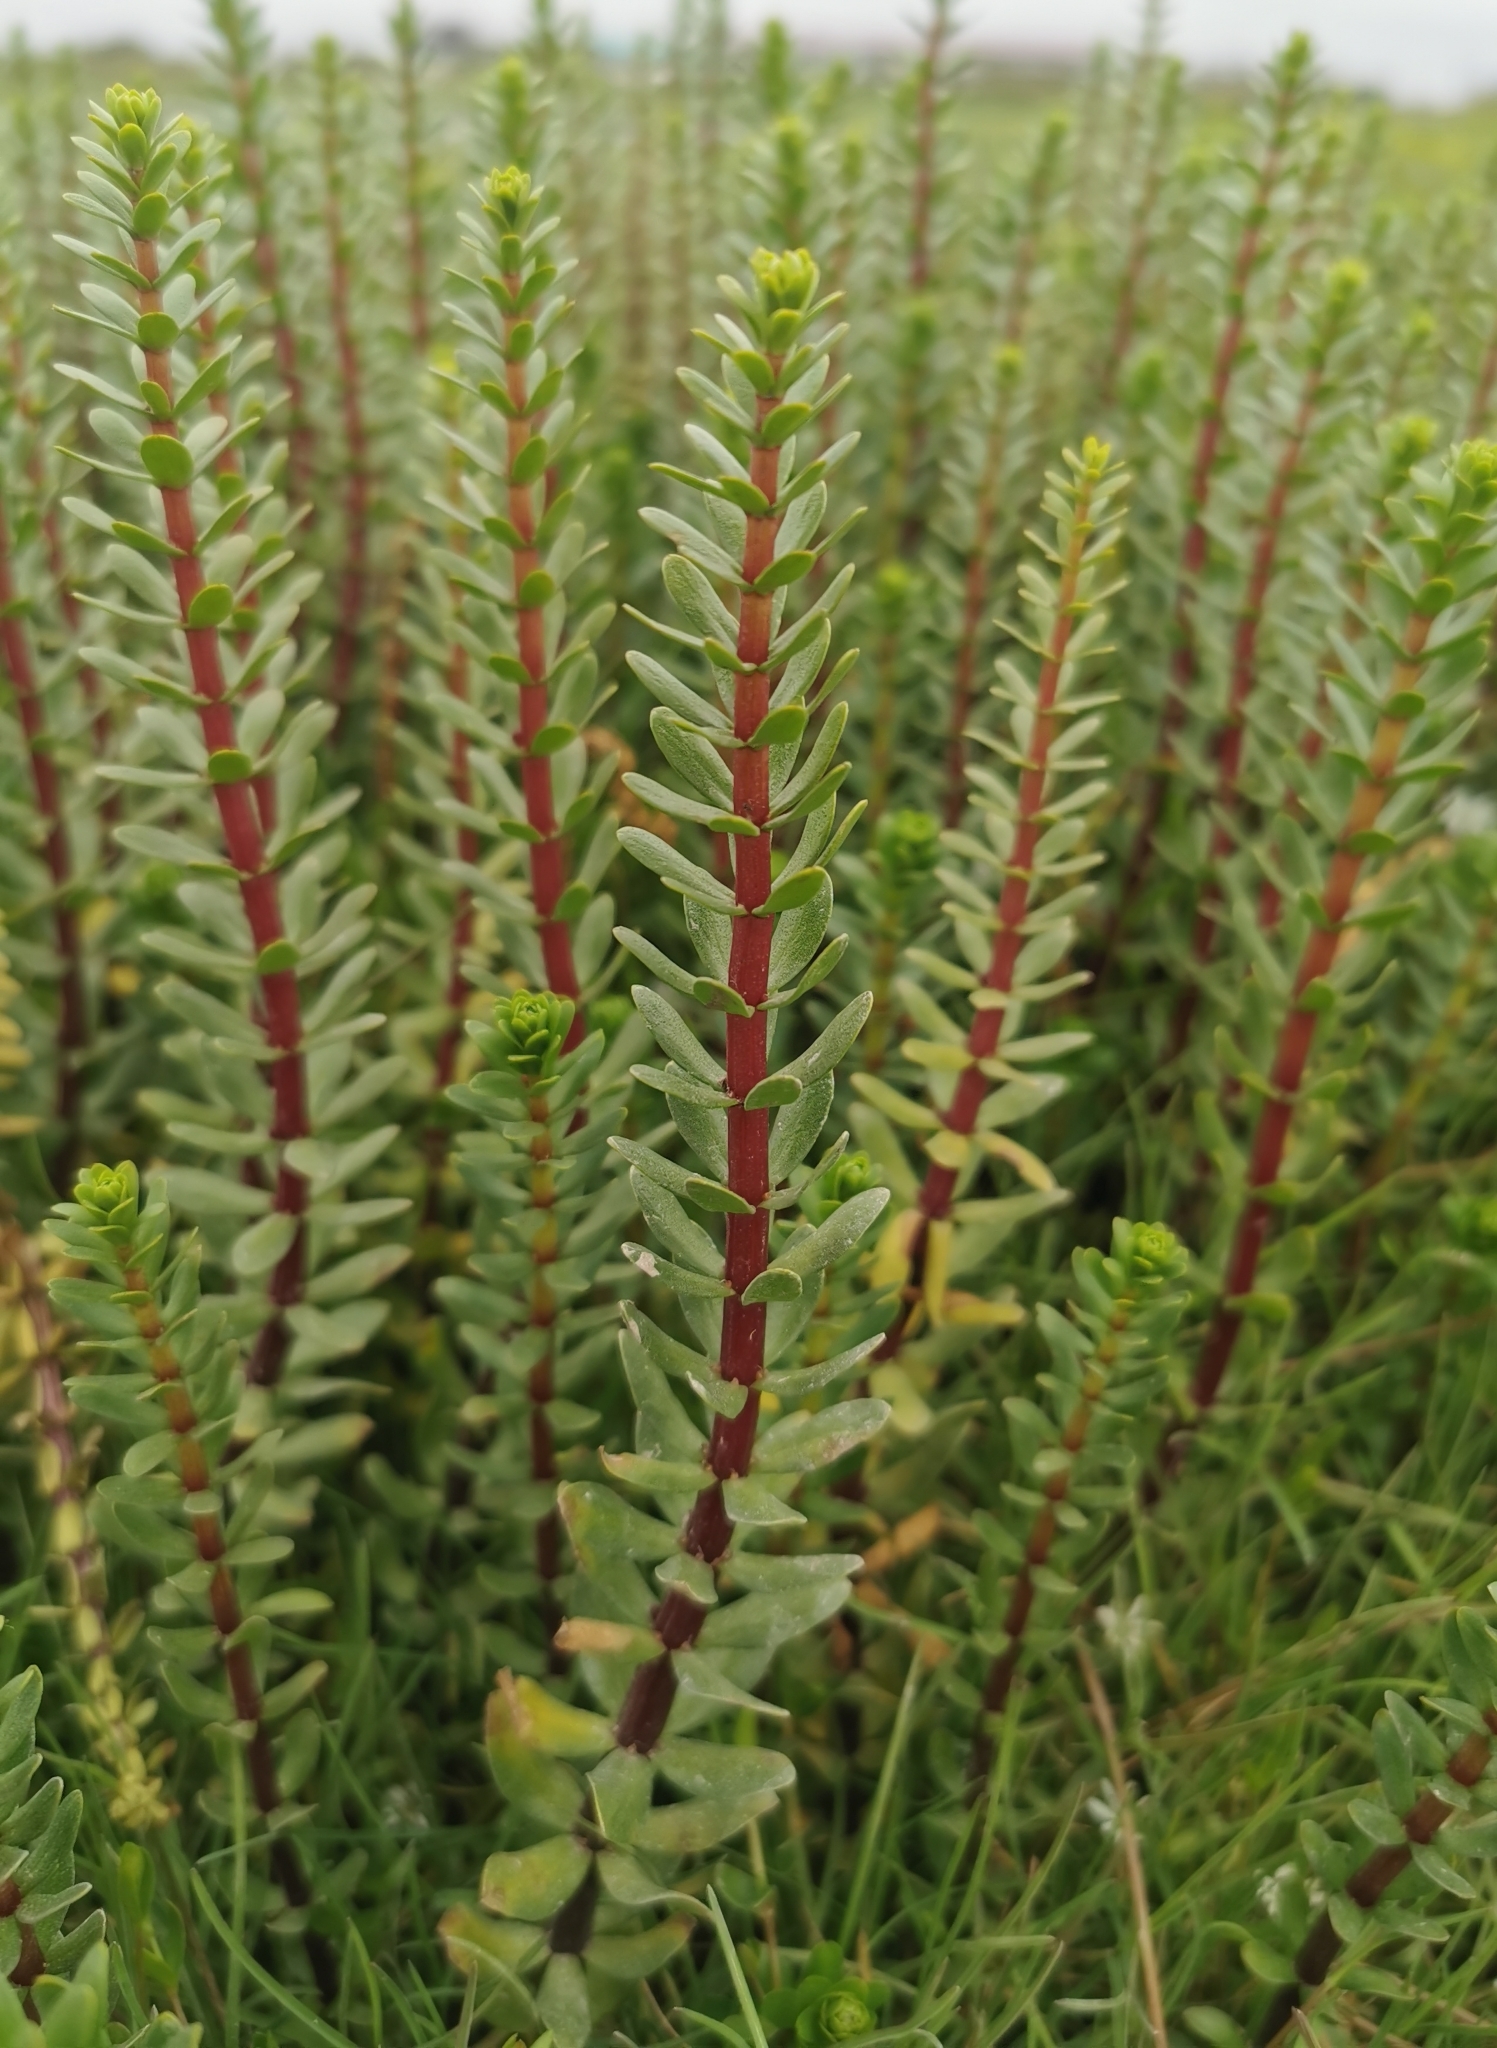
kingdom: Plantae
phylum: Tracheophyta
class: Magnoliopsida
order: Lamiales
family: Plantaginaceae
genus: Hippuris
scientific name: Hippuris tetraphylla
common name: Four-leaved mare's-tail
